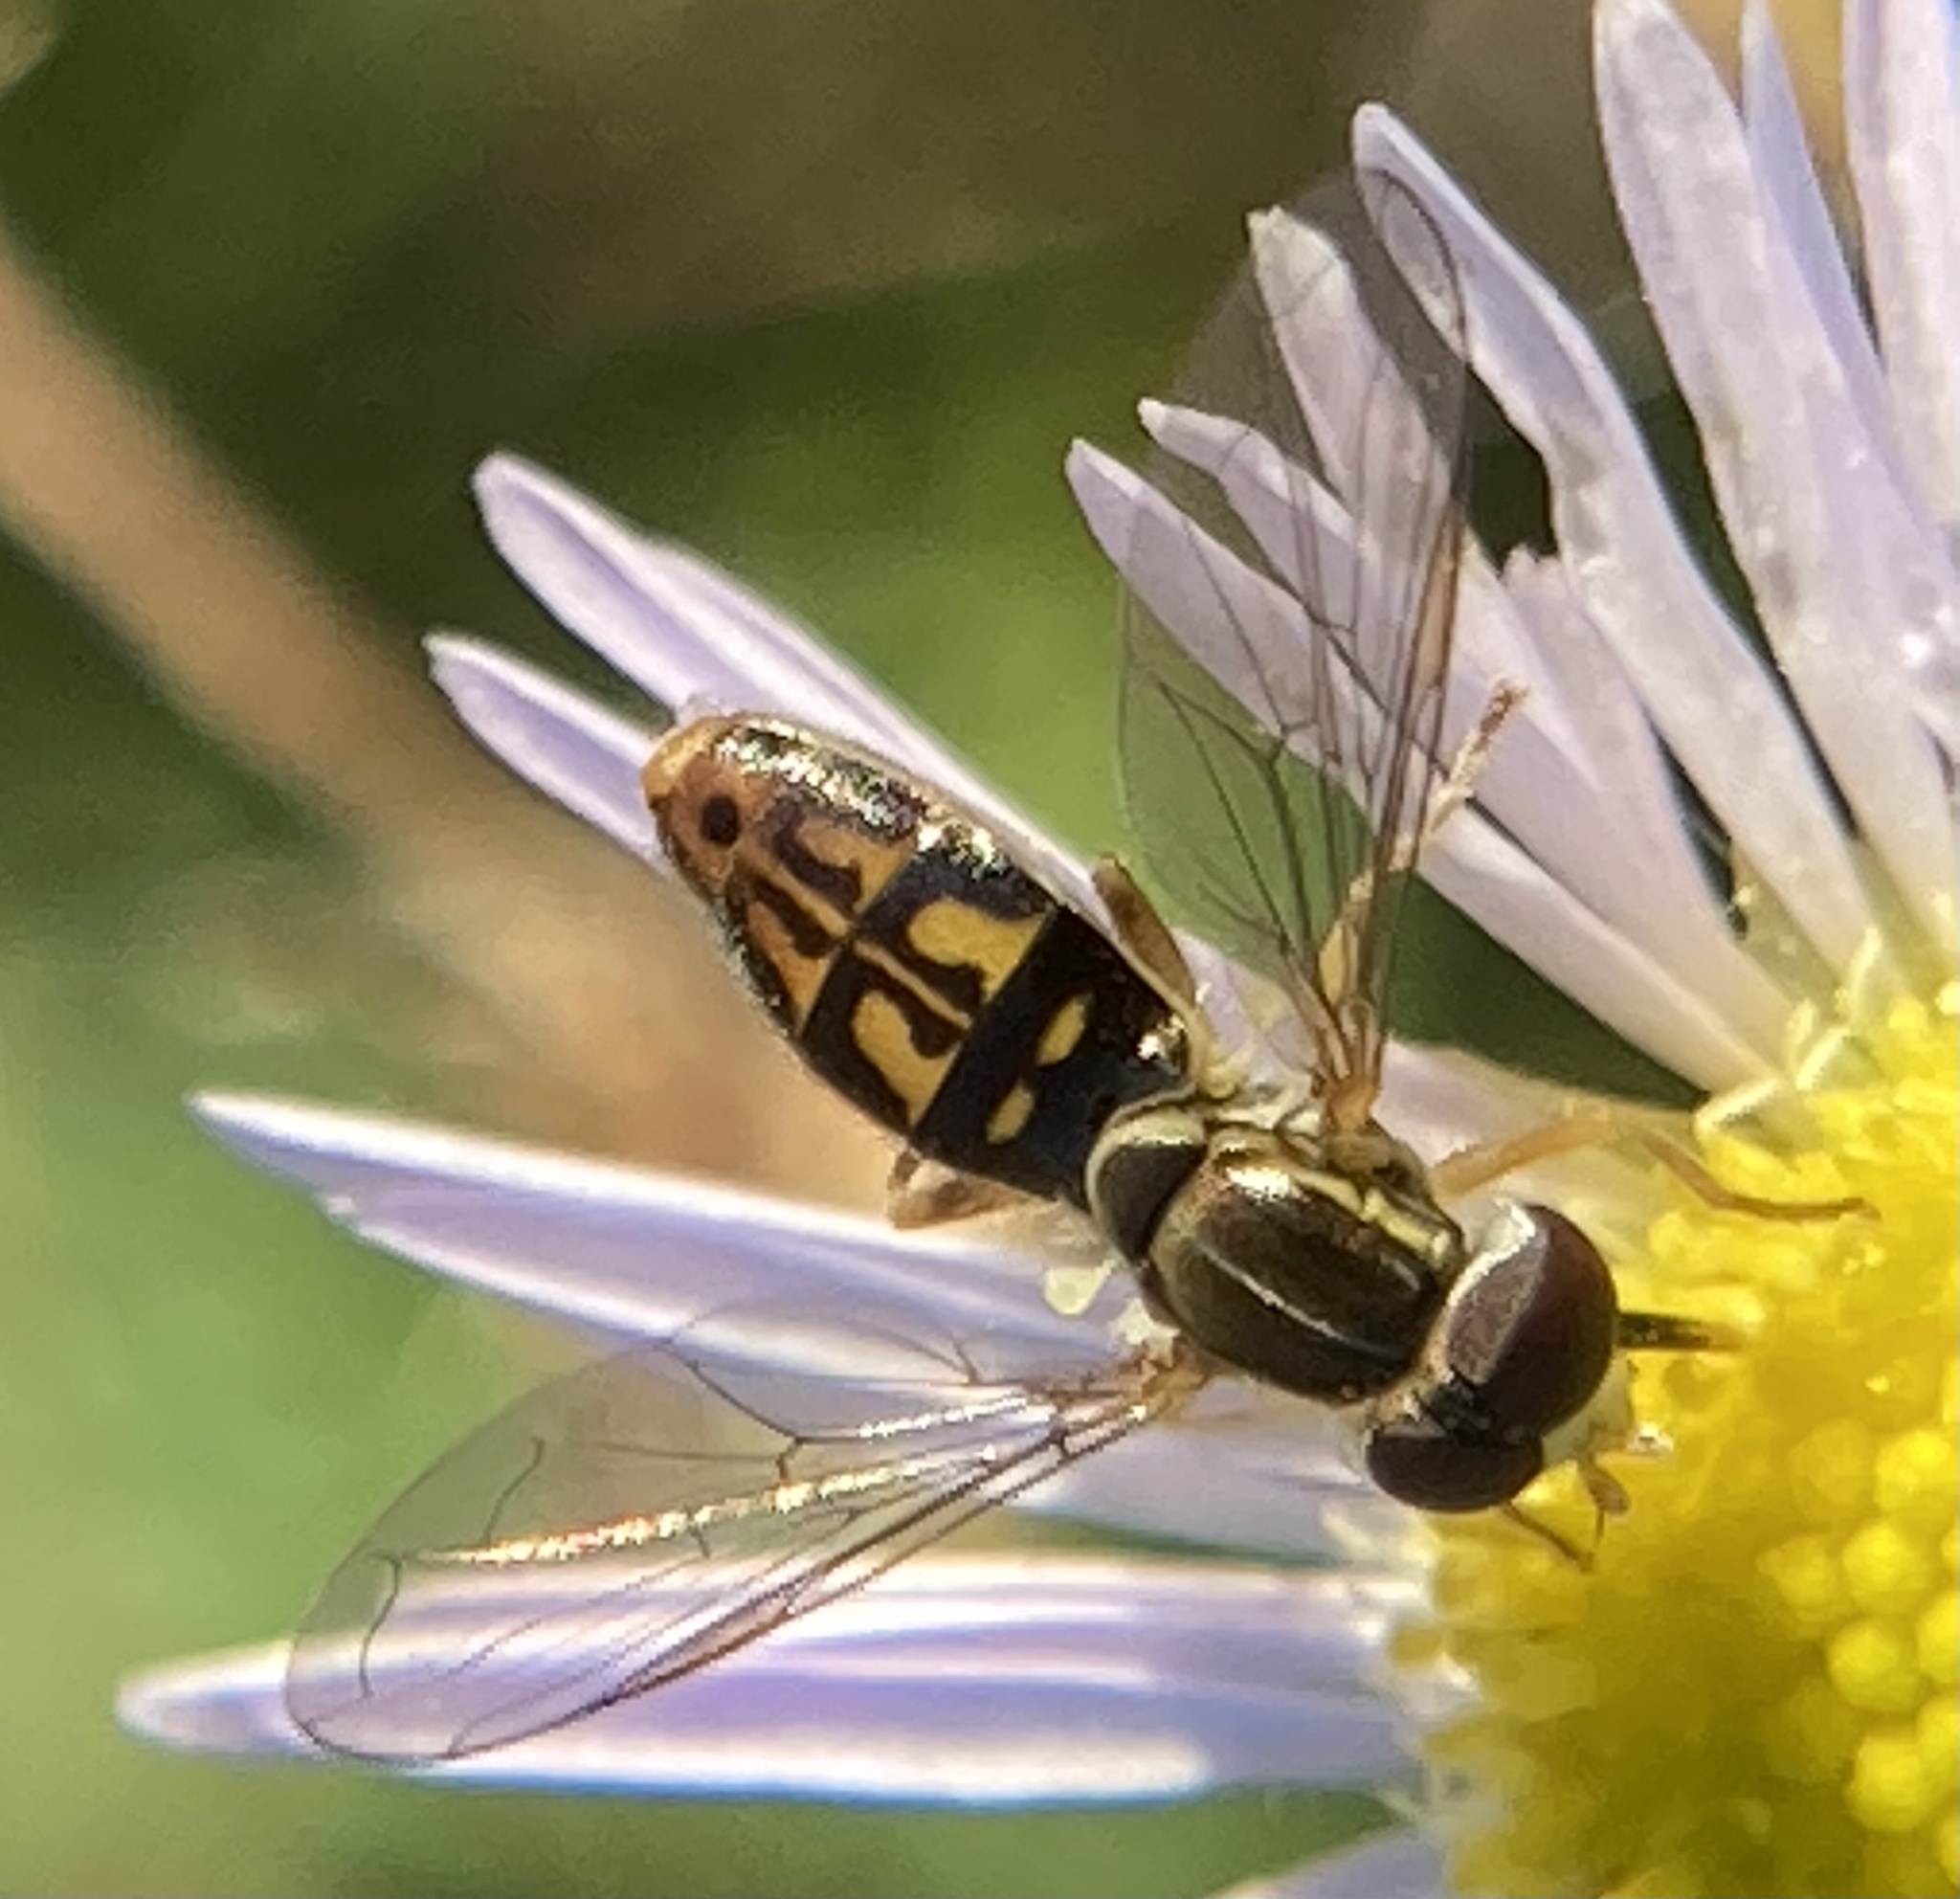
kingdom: Animalia
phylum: Arthropoda
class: Insecta
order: Diptera
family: Syrphidae
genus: Toxomerus
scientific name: Toxomerus marginatus
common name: Syrphid fly
